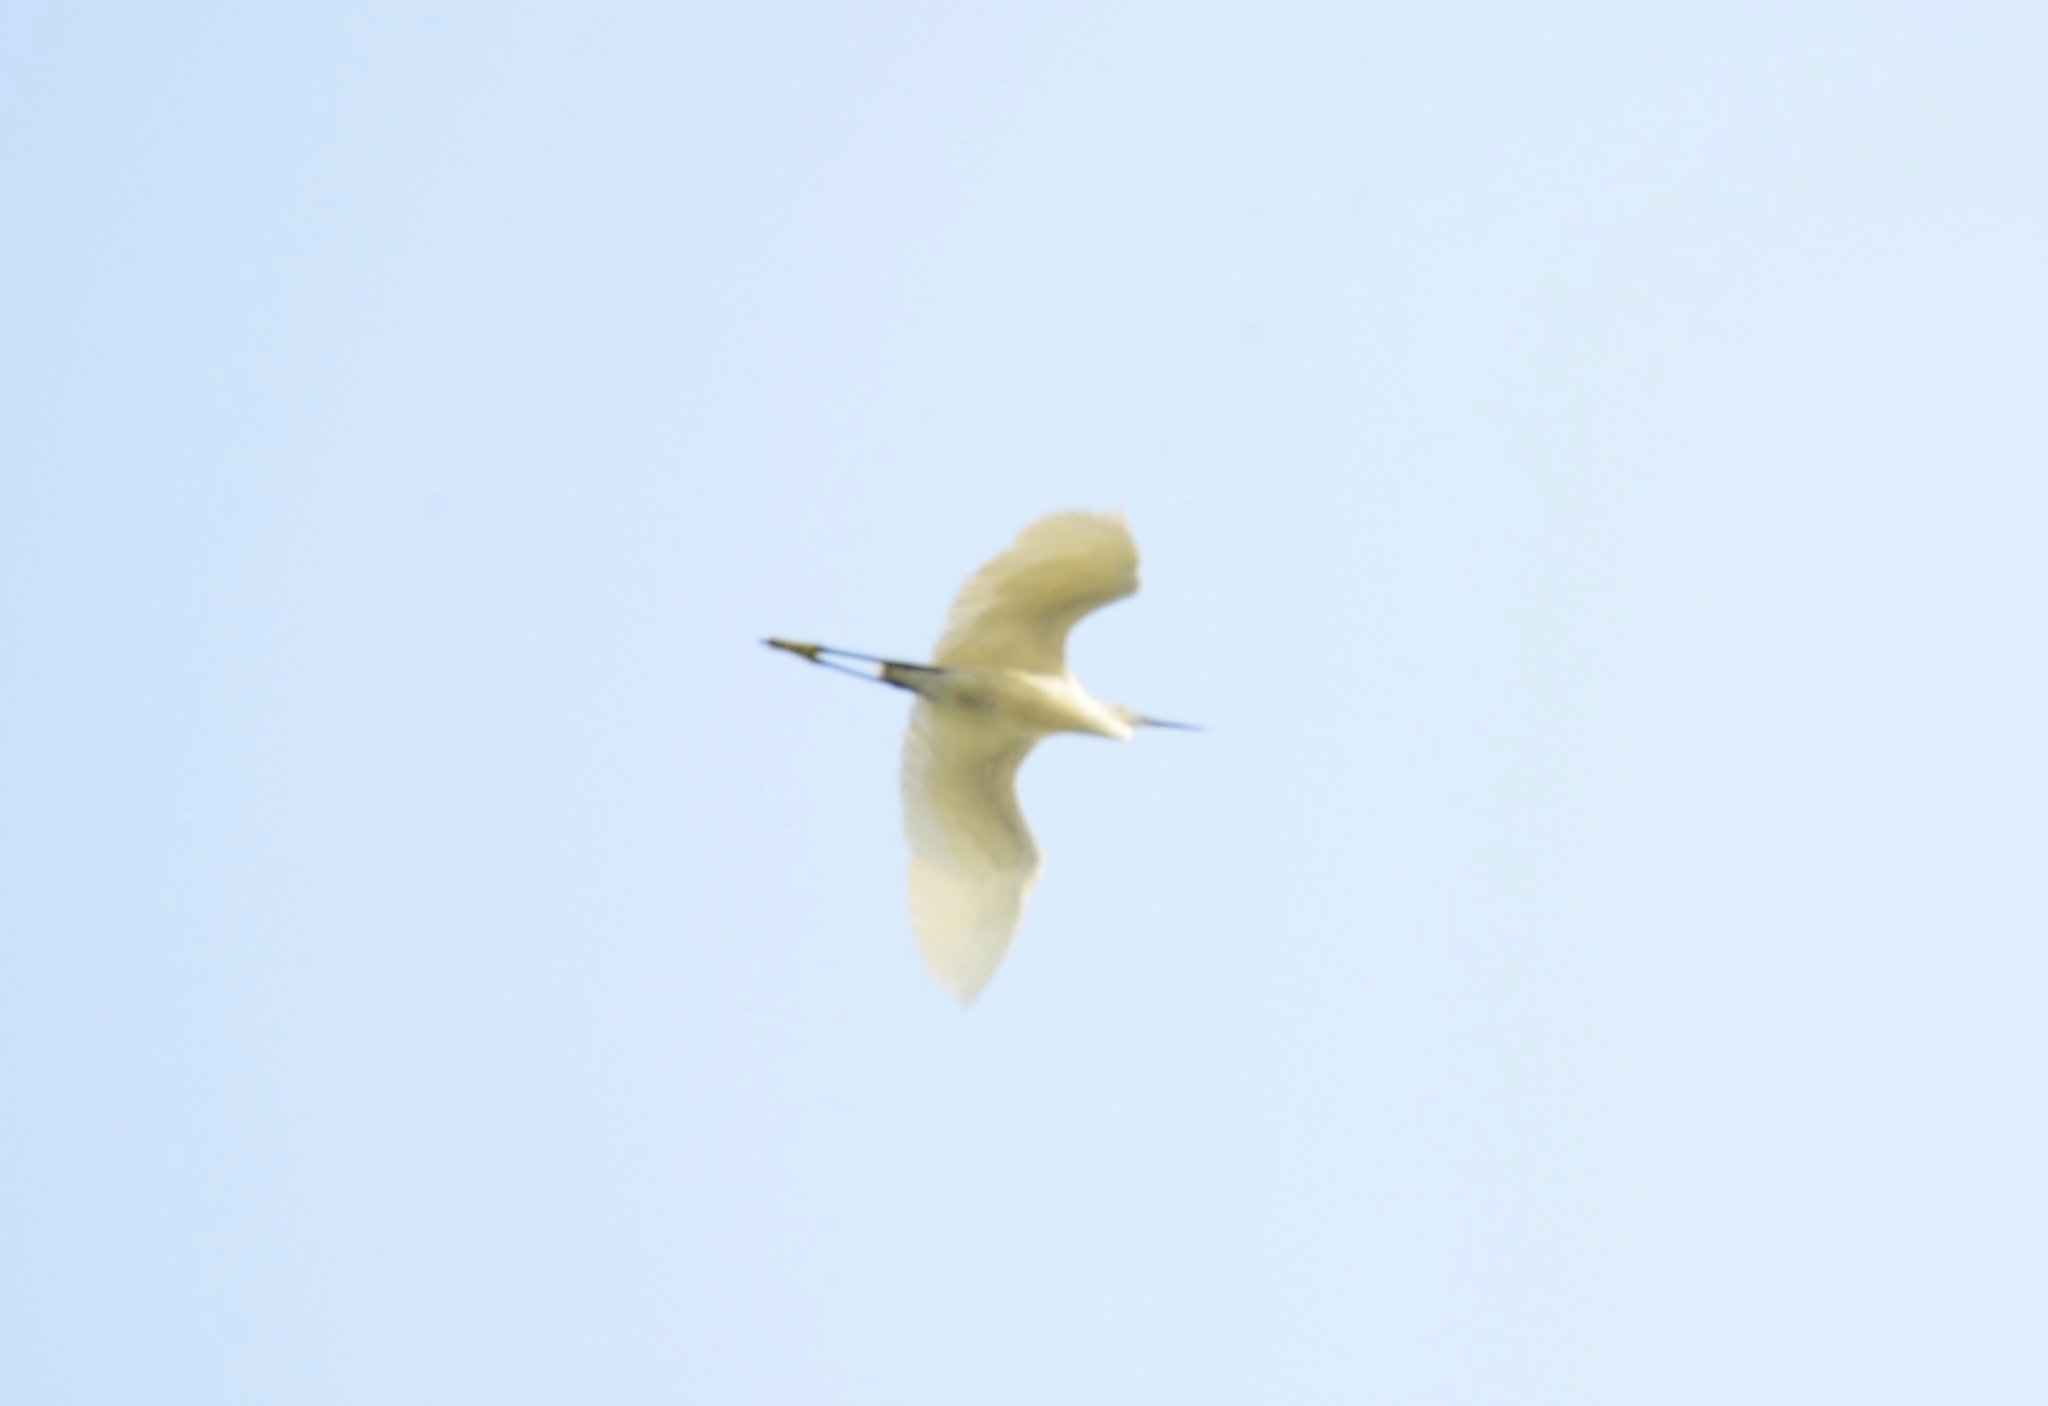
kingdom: Animalia
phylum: Chordata
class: Aves
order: Pelecaniformes
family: Ardeidae
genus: Egretta
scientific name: Egretta garzetta
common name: Little egret
